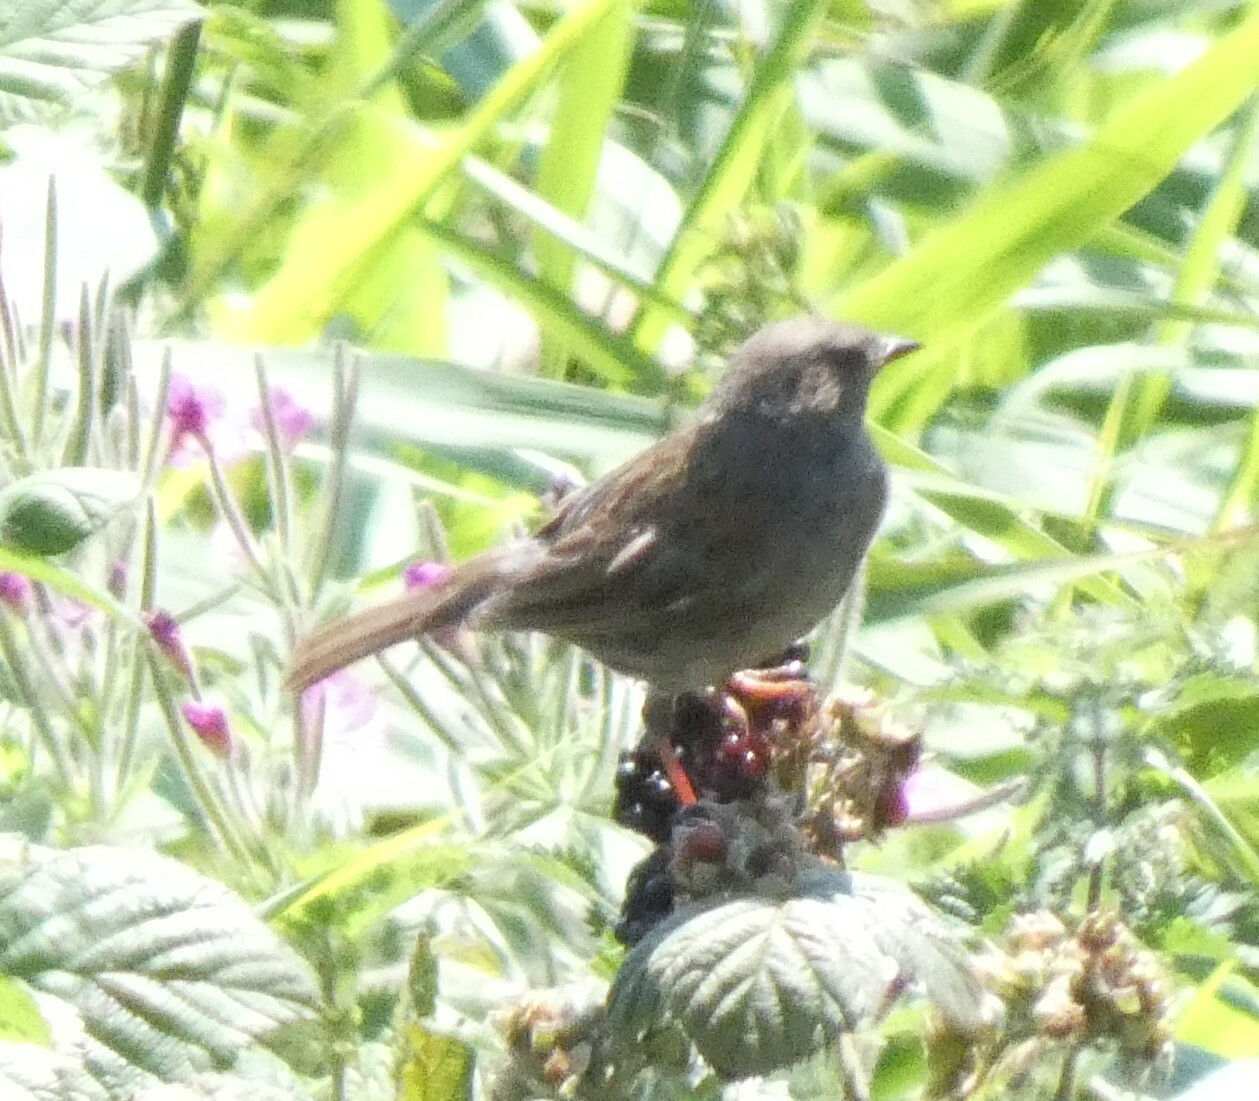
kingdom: Animalia
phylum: Chordata
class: Aves
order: Passeriformes
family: Prunellidae
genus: Prunella
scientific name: Prunella modularis
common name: Dunnock
